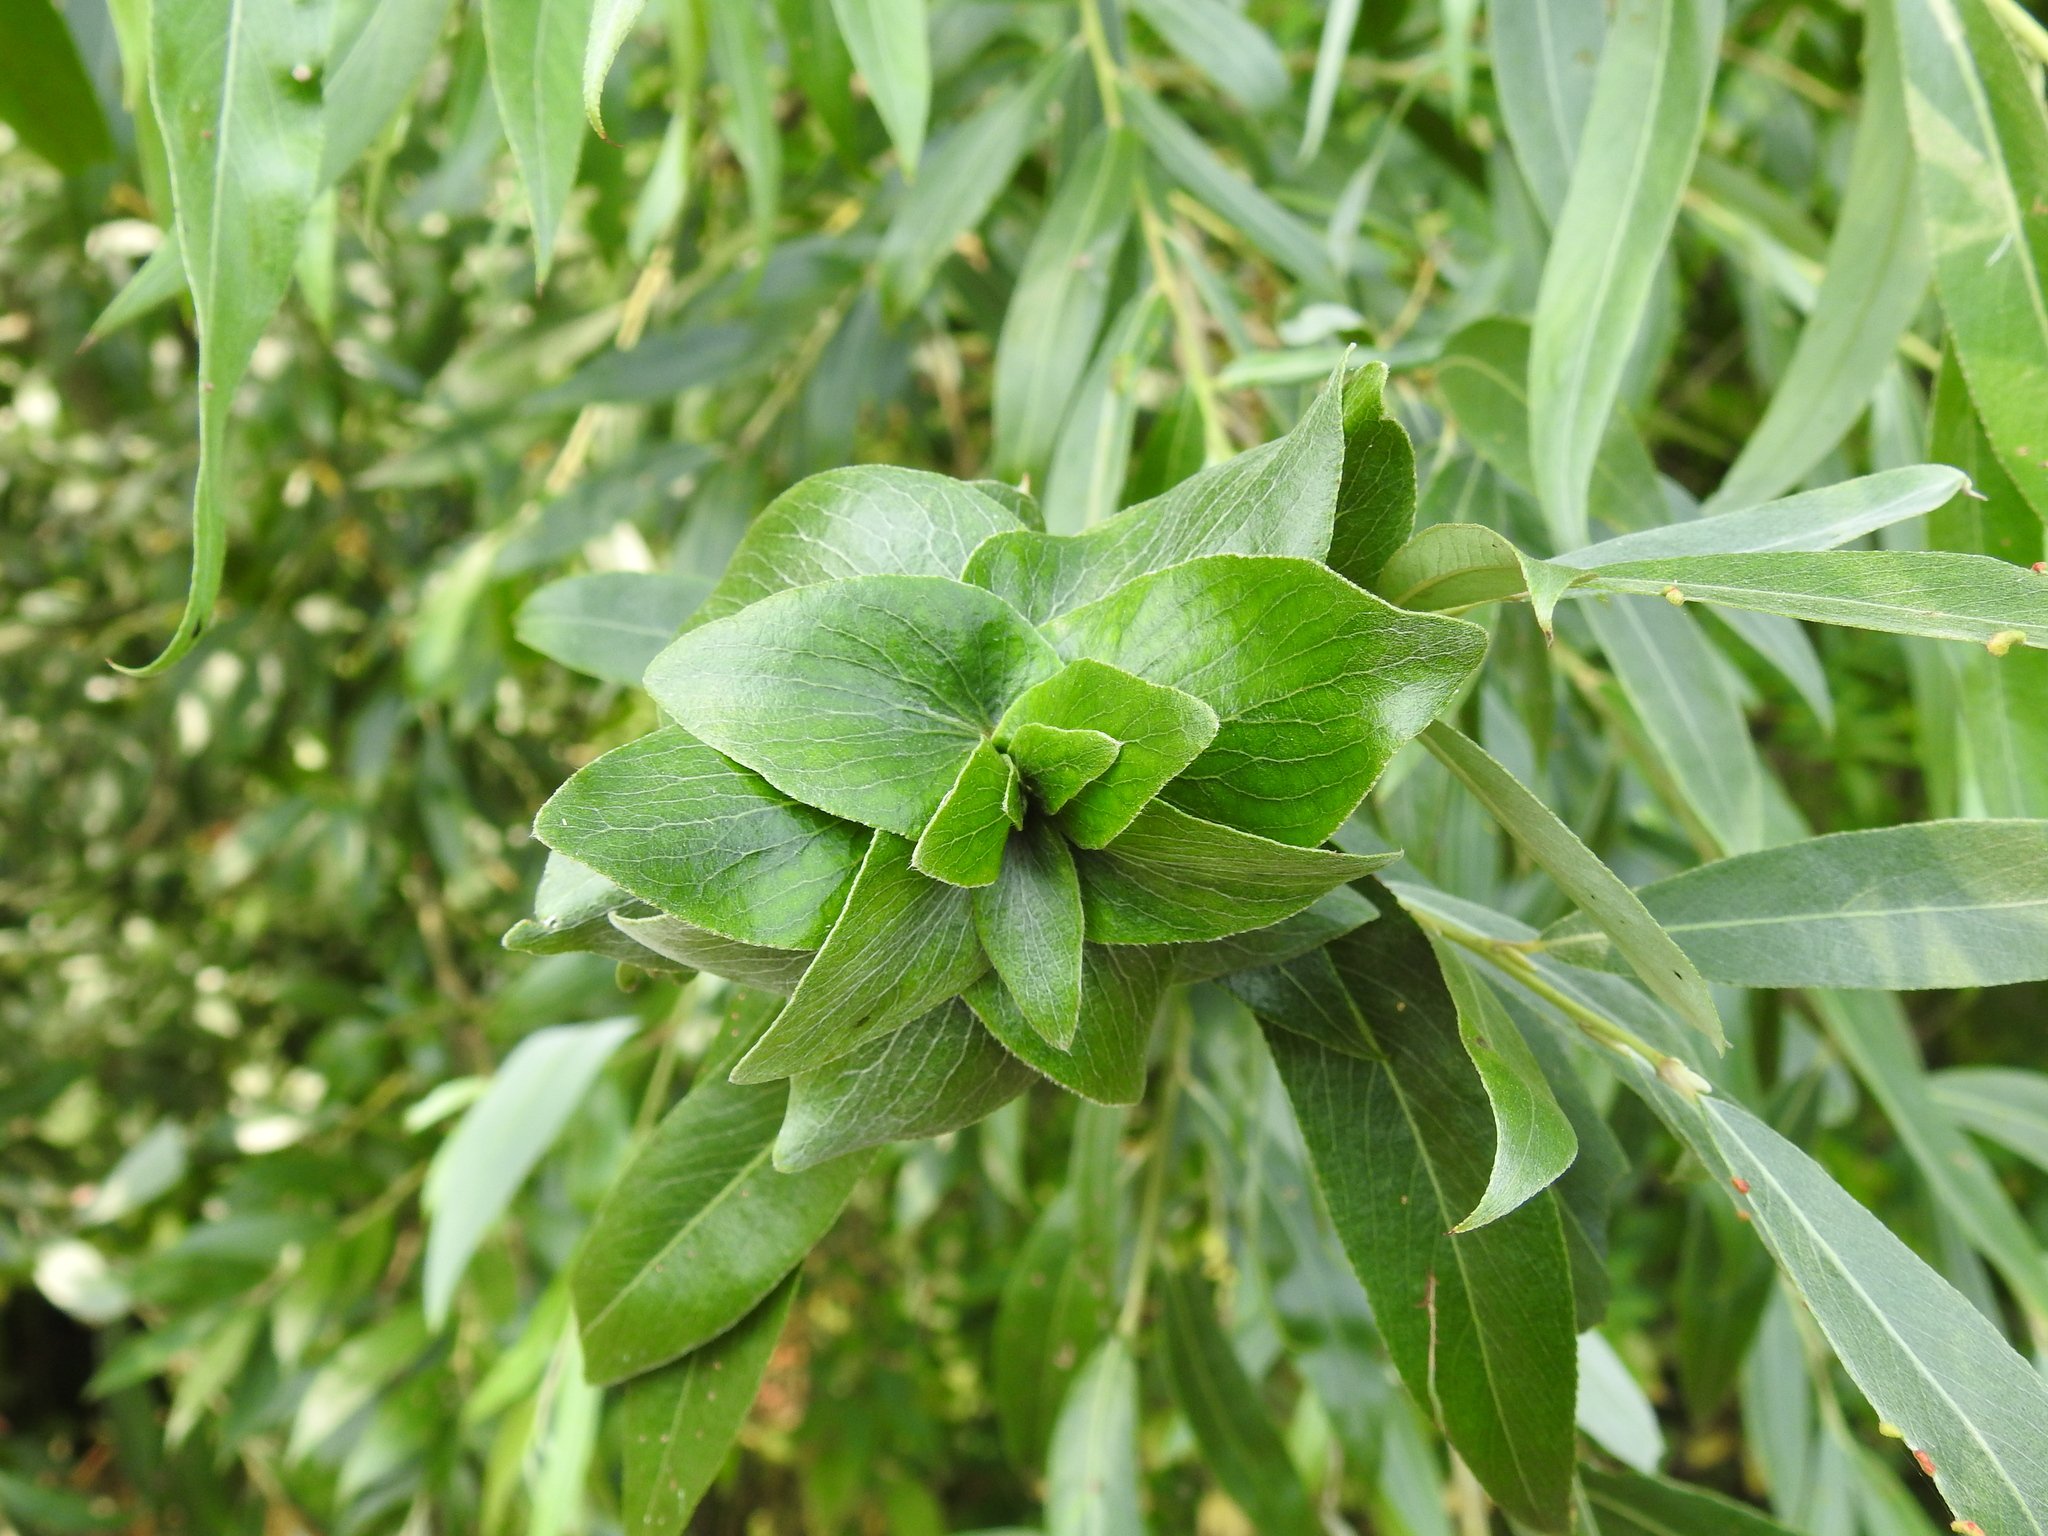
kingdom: Animalia
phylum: Arthropoda
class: Insecta
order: Diptera
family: Cecidomyiidae
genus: Rabdophaga
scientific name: Rabdophaga rosaria
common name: Willow rose gall midge
